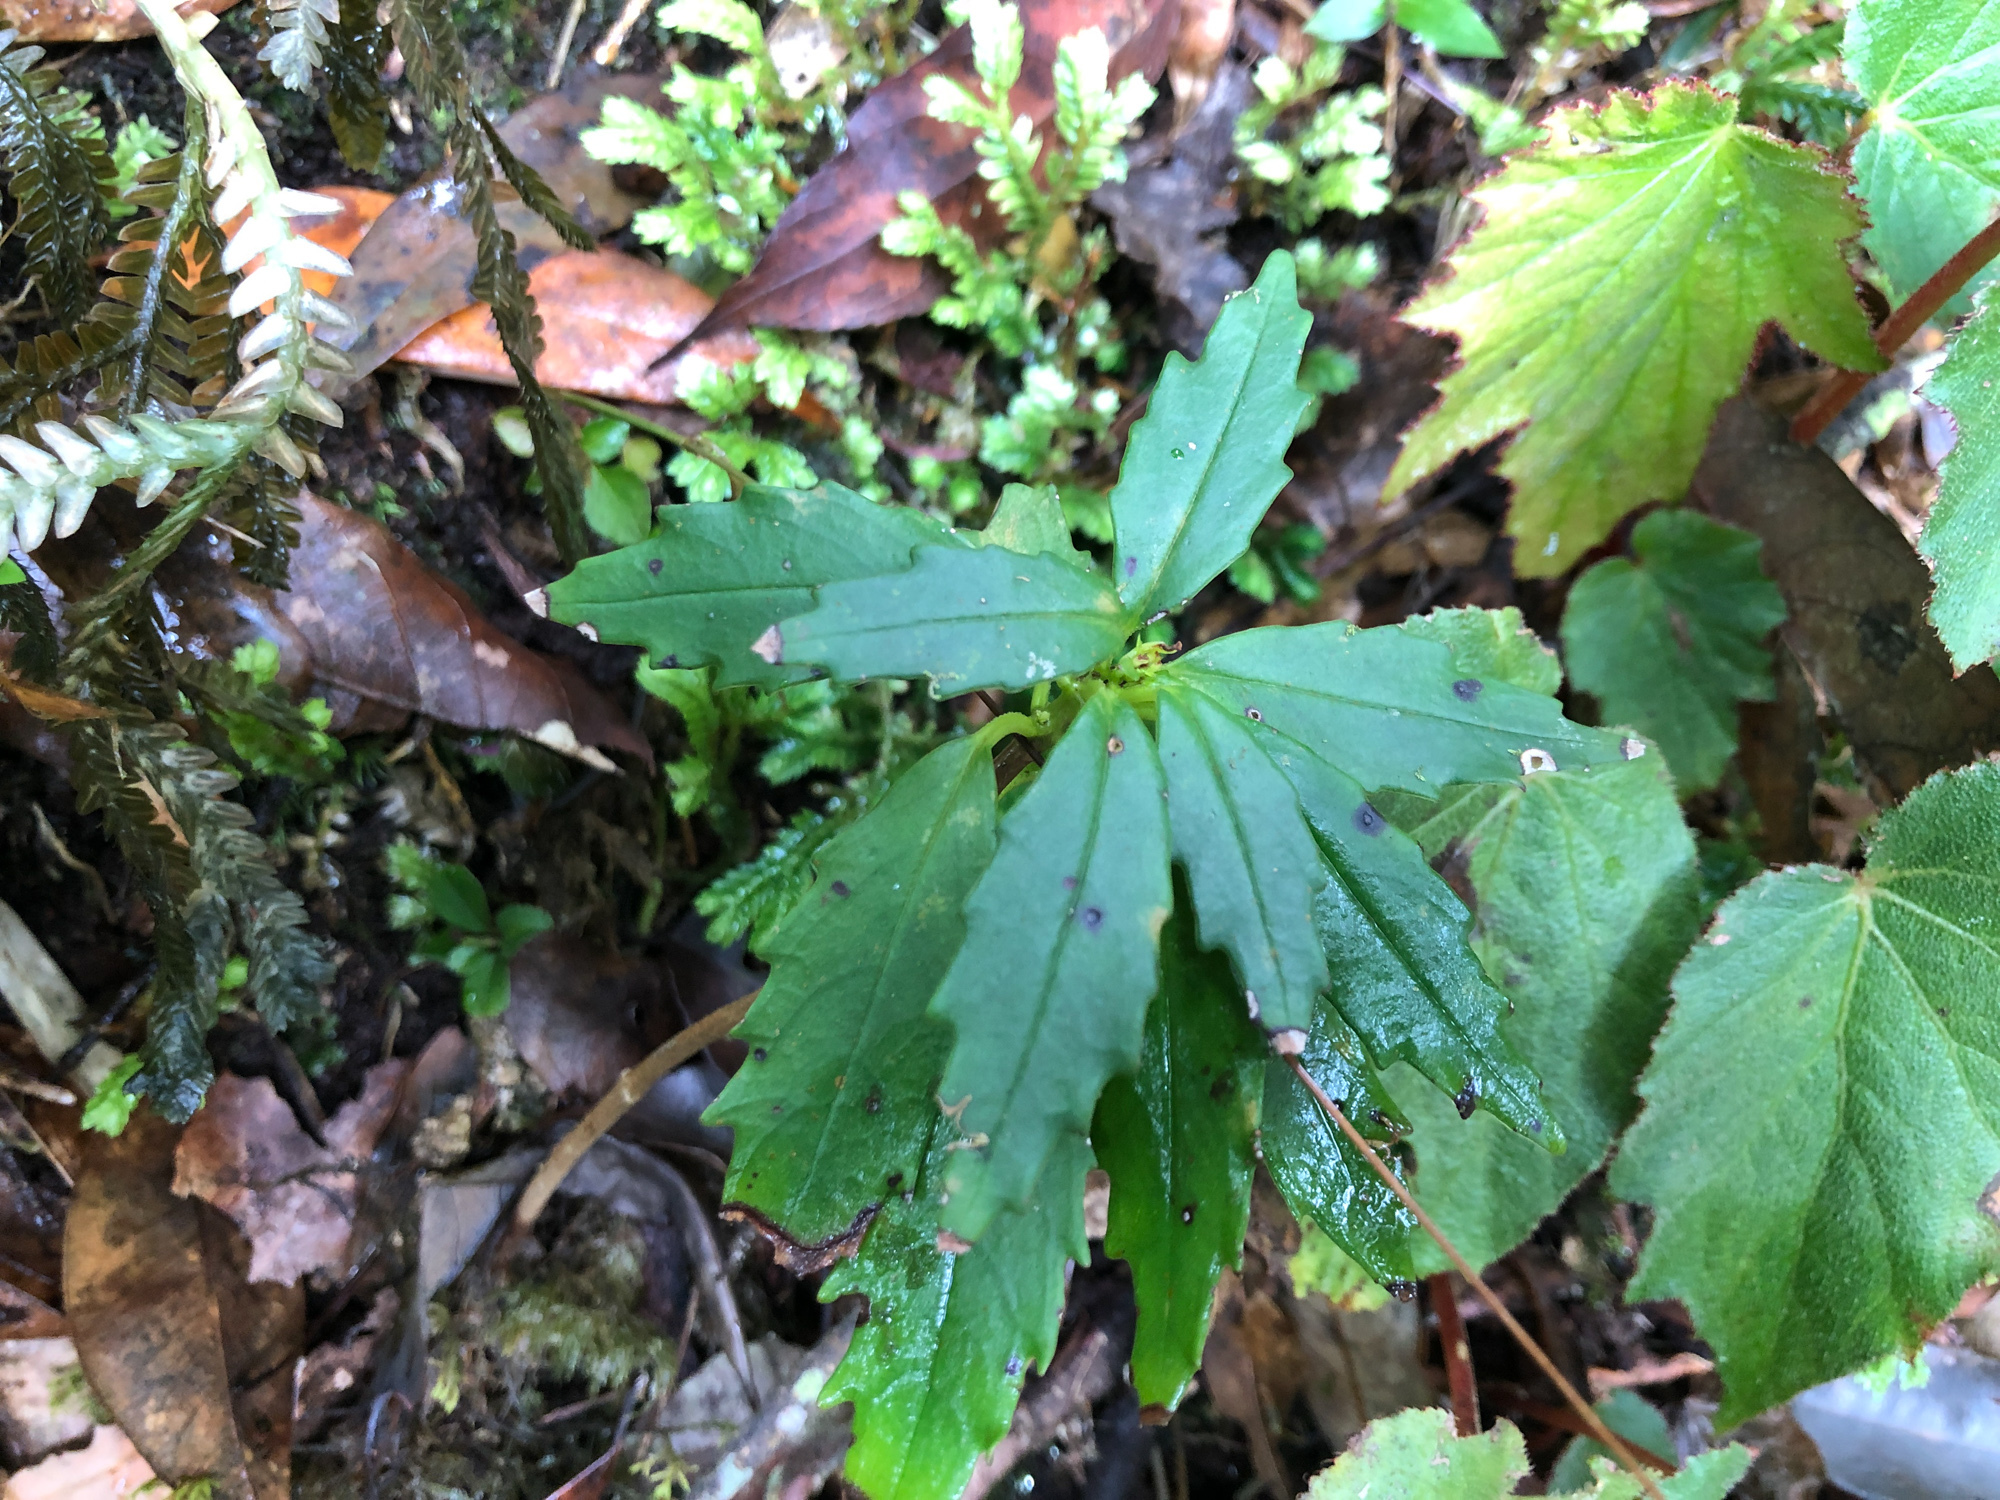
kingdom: Plantae
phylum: Tracheophyta
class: Magnoliopsida
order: Lamiales
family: Gesneriaceae
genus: Lysionotus
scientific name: Lysionotus pauciflorus
